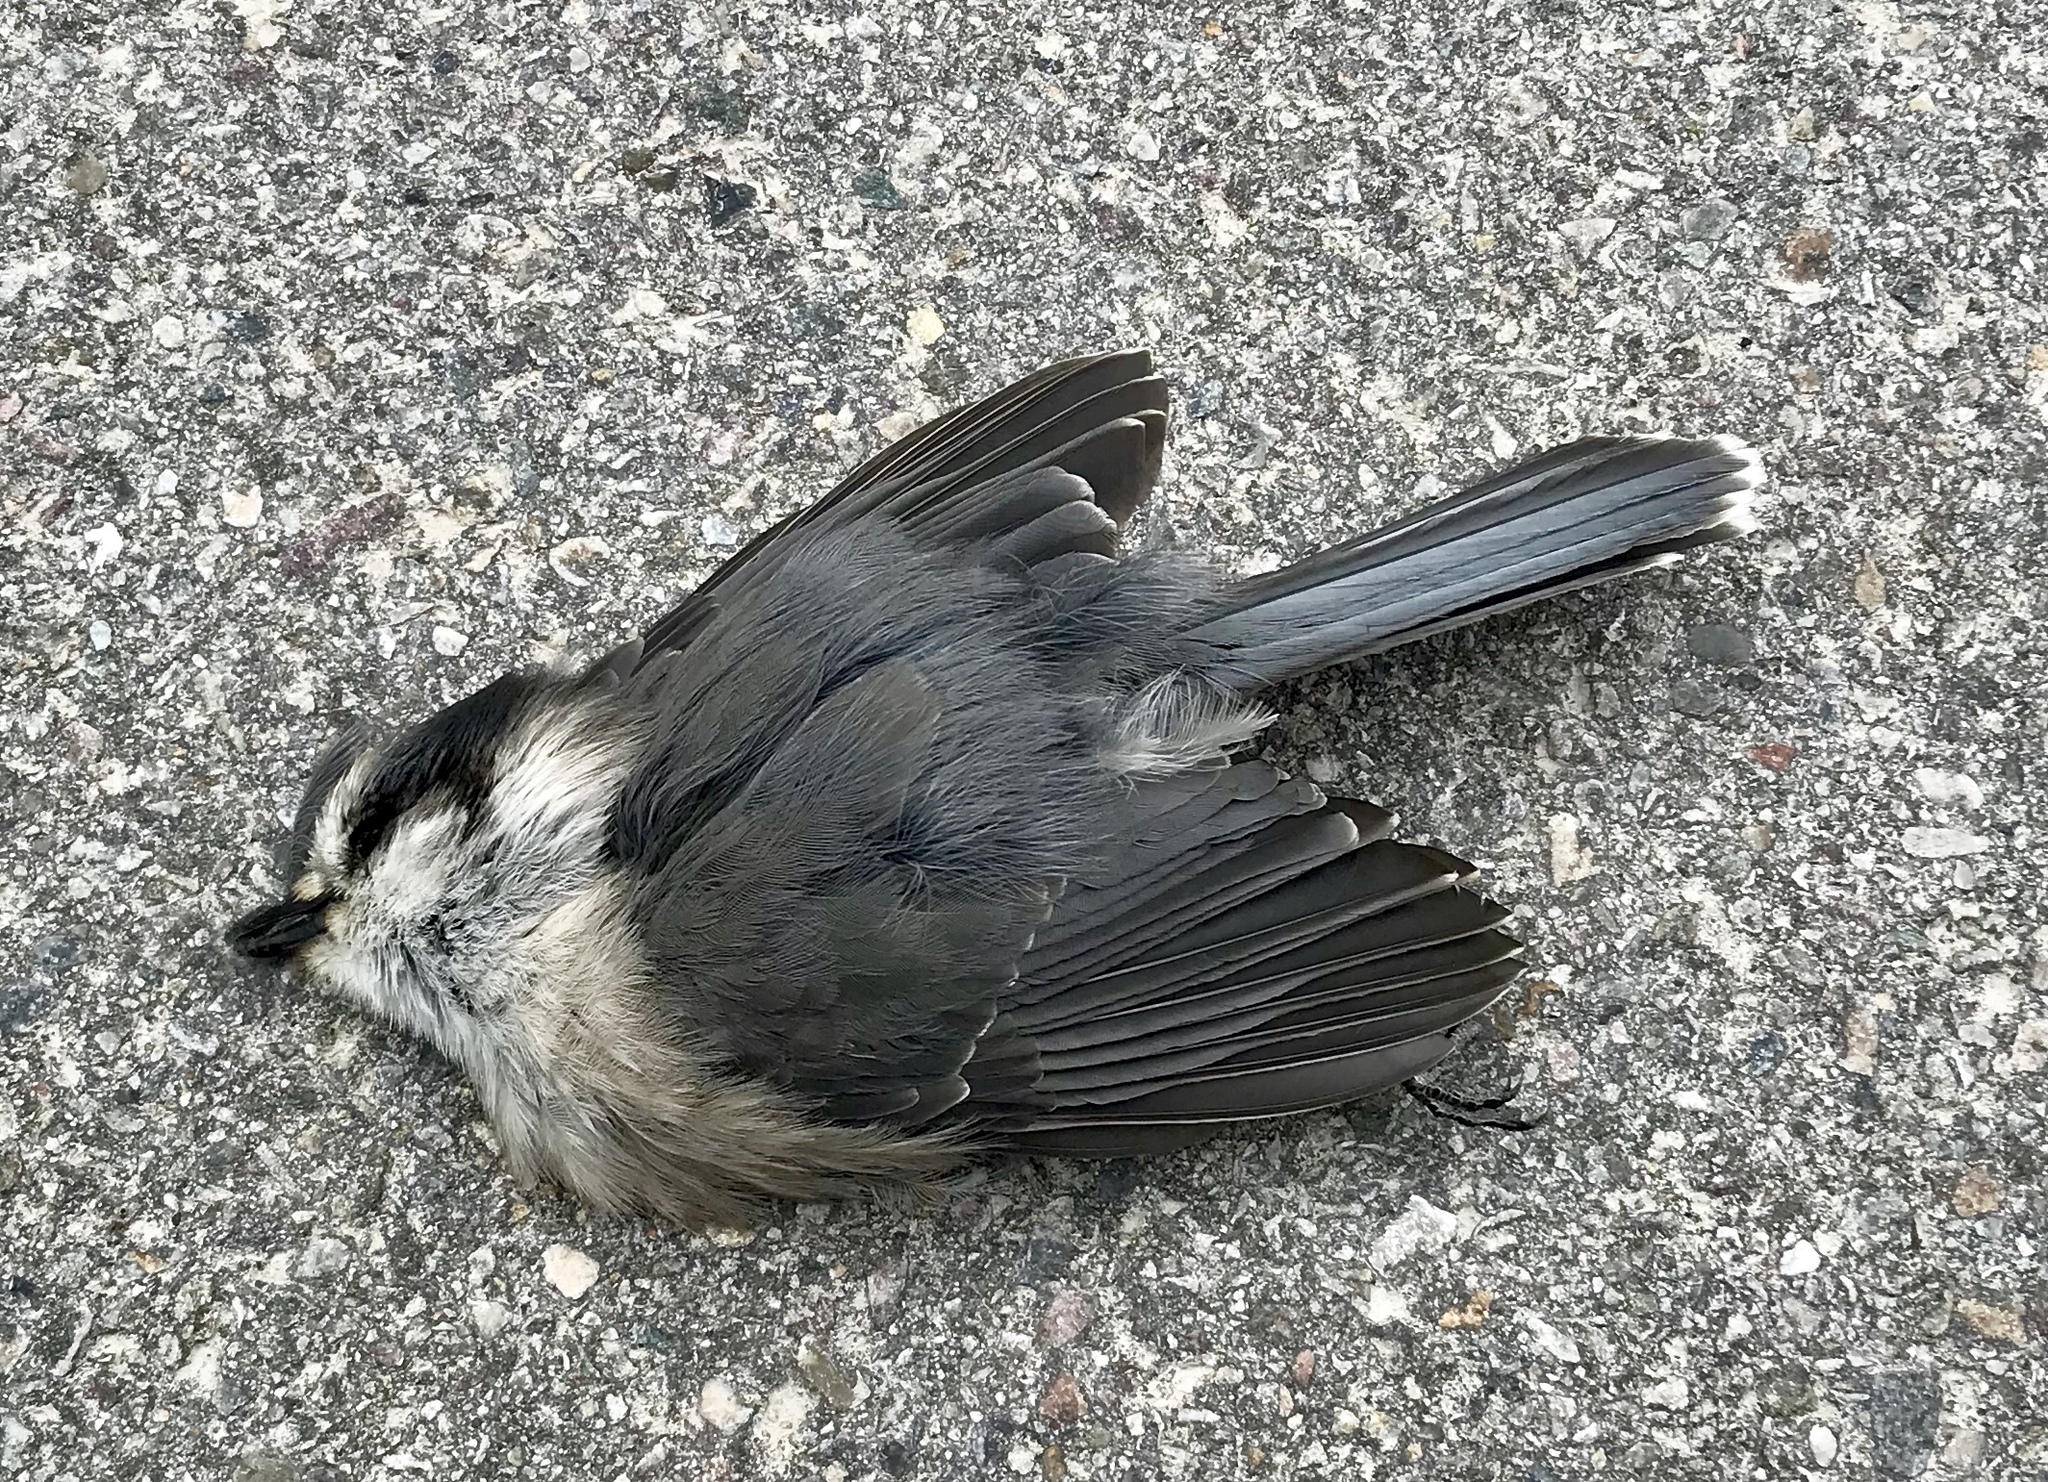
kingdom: Animalia
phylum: Chordata
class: Aves
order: Passeriformes
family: Corvidae
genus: Perisoreus
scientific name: Perisoreus canadensis
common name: Gray jay
